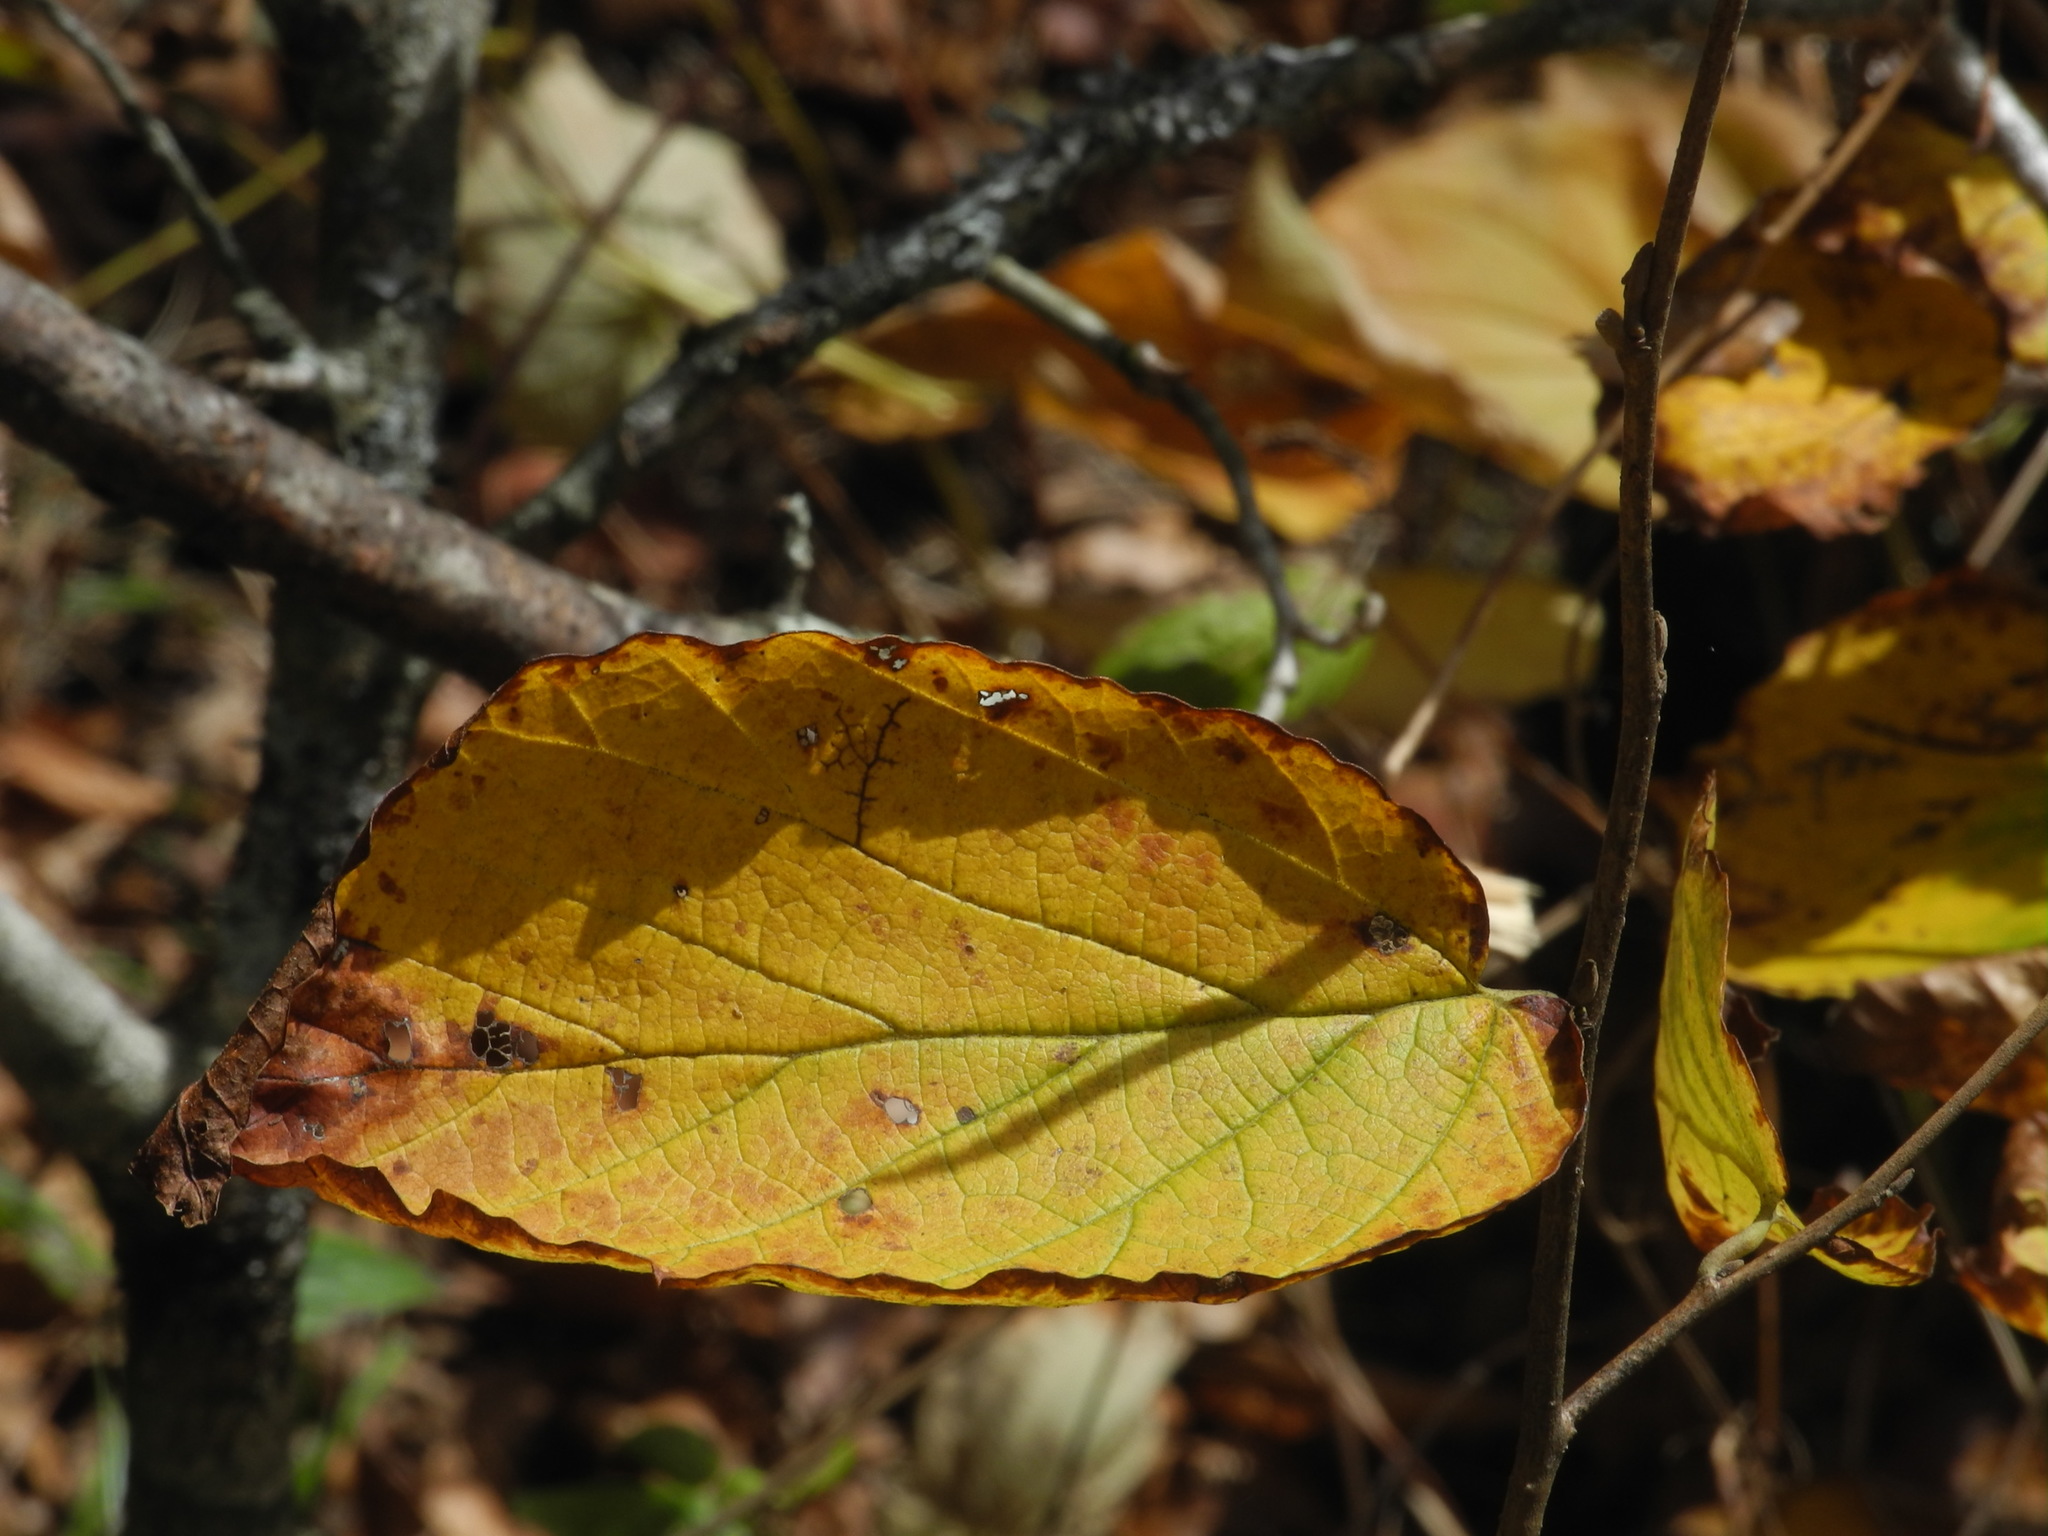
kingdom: Plantae
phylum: Tracheophyta
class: Magnoliopsida
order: Saxifragales
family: Hamamelidaceae
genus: Hamamelis
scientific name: Hamamelis virginiana
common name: Witch-hazel
